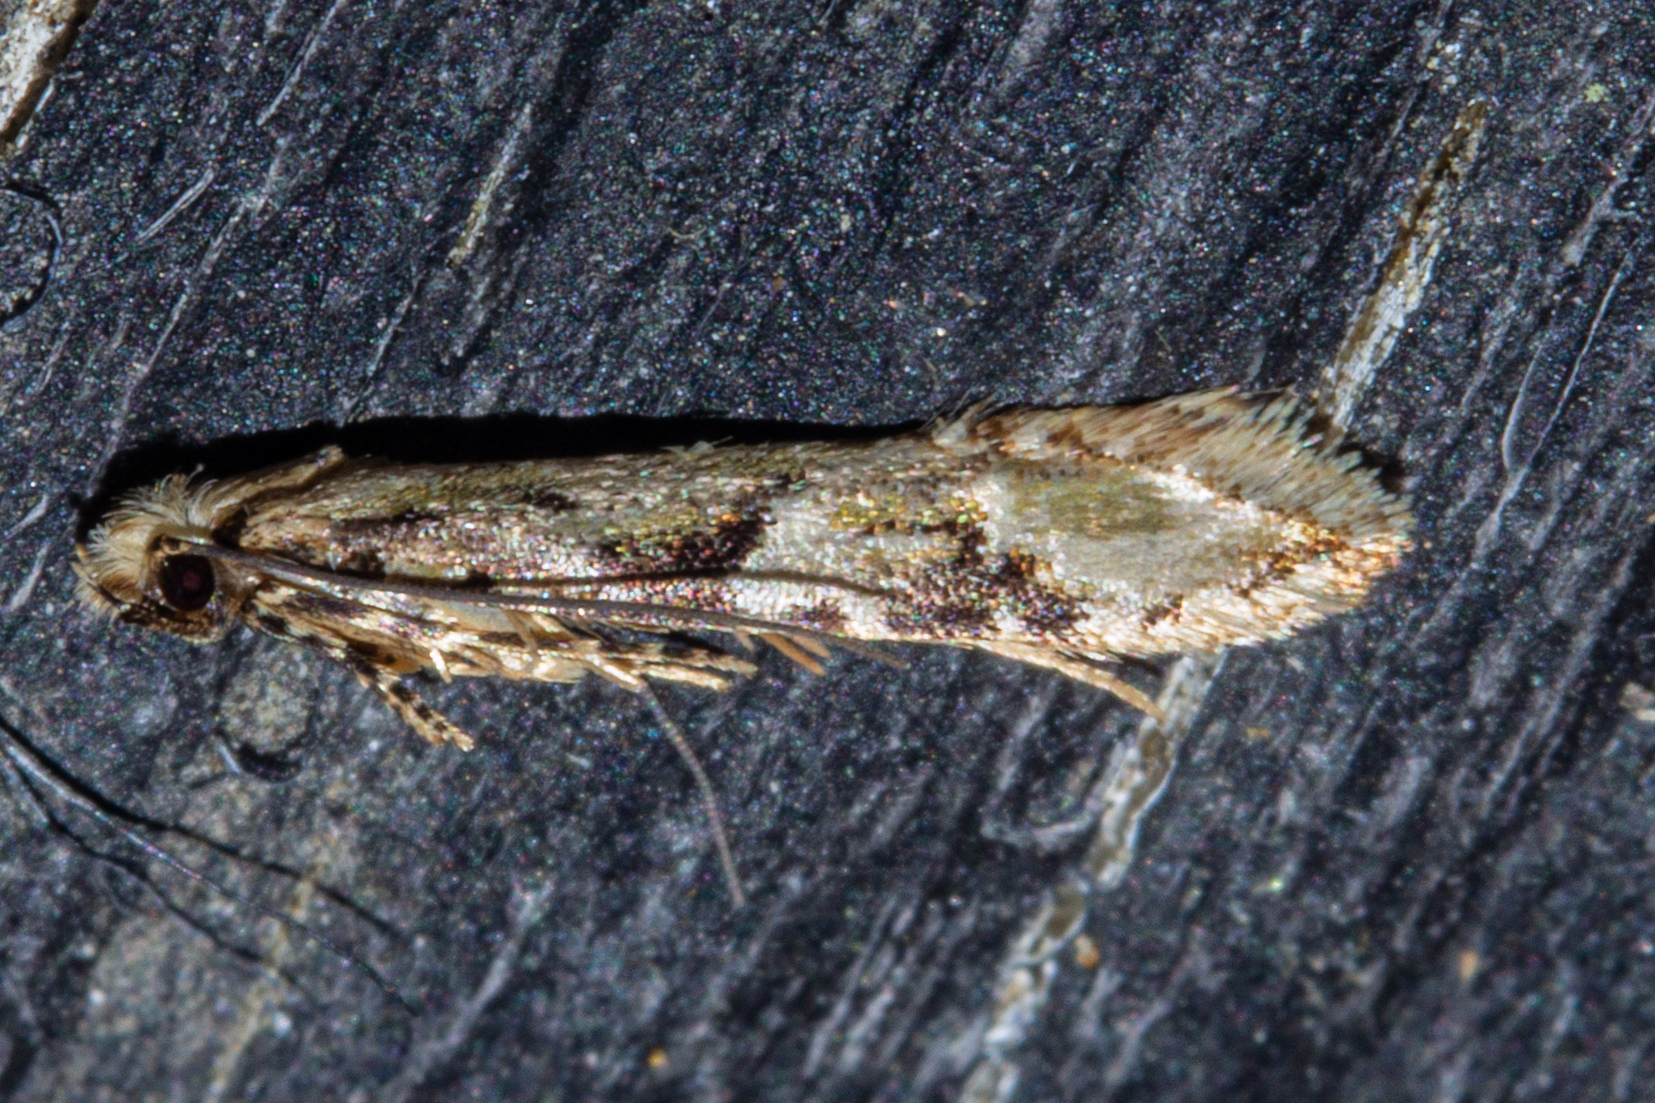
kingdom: Animalia
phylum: Arthropoda
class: Insecta
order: Lepidoptera
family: Tineidae
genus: Crypsitricha
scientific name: Crypsitricha mesotypa
